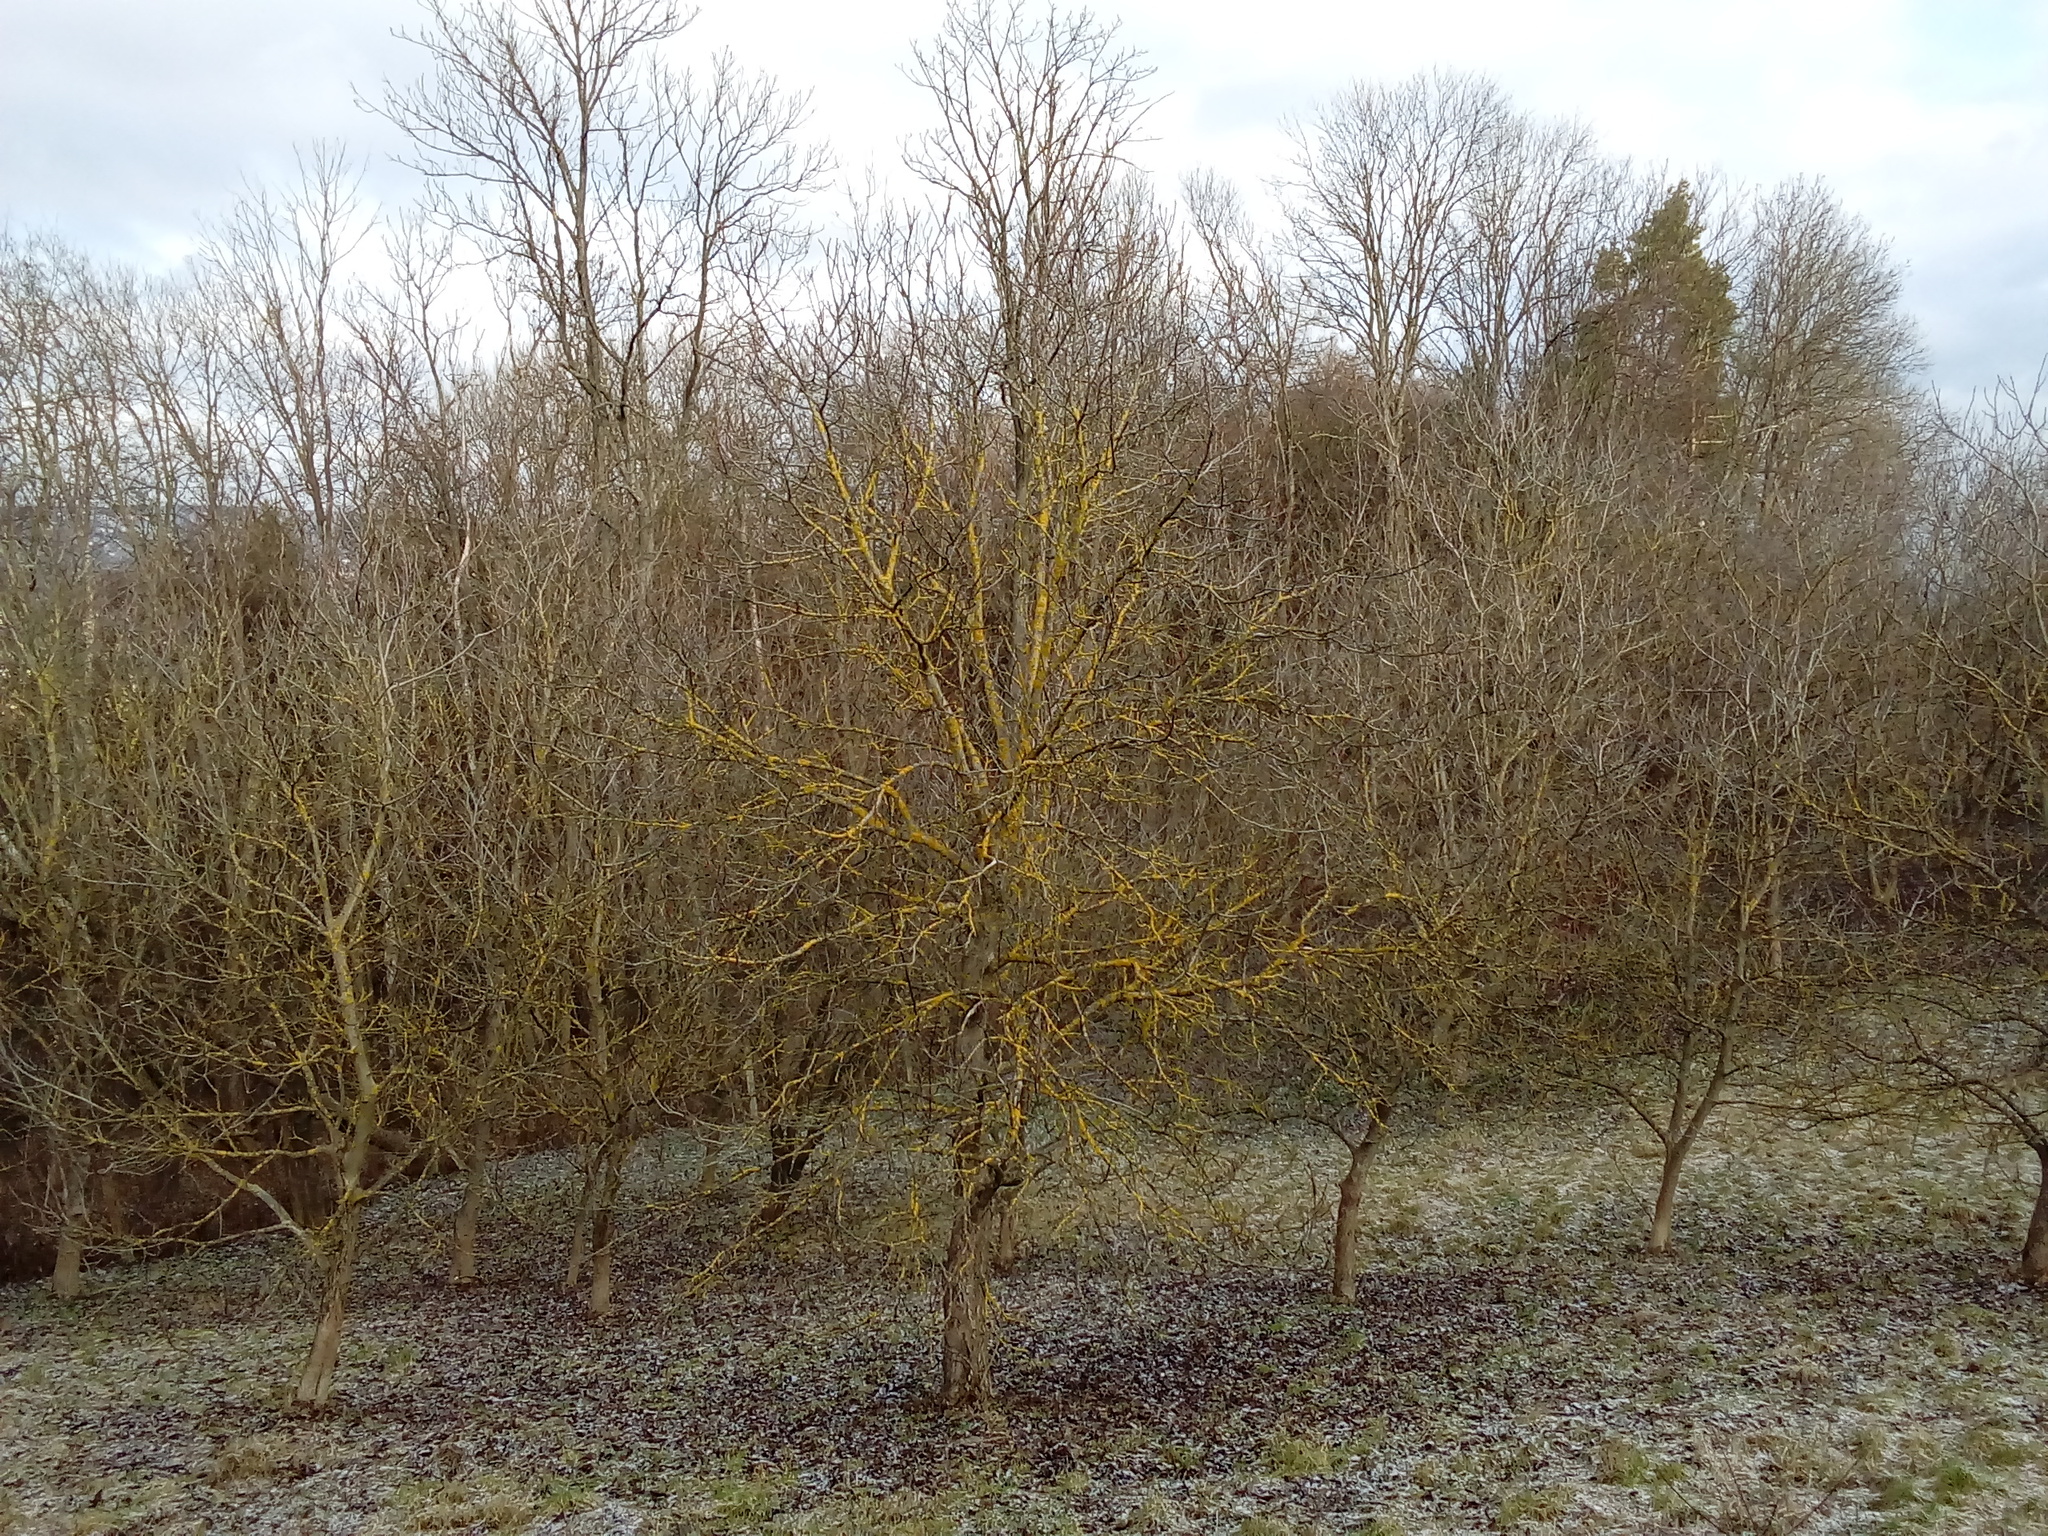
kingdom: Fungi
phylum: Ascomycota
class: Lecanoromycetes
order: Teloschistales
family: Teloschistaceae
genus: Xanthoria
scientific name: Xanthoria parietina
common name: Common orange lichen
